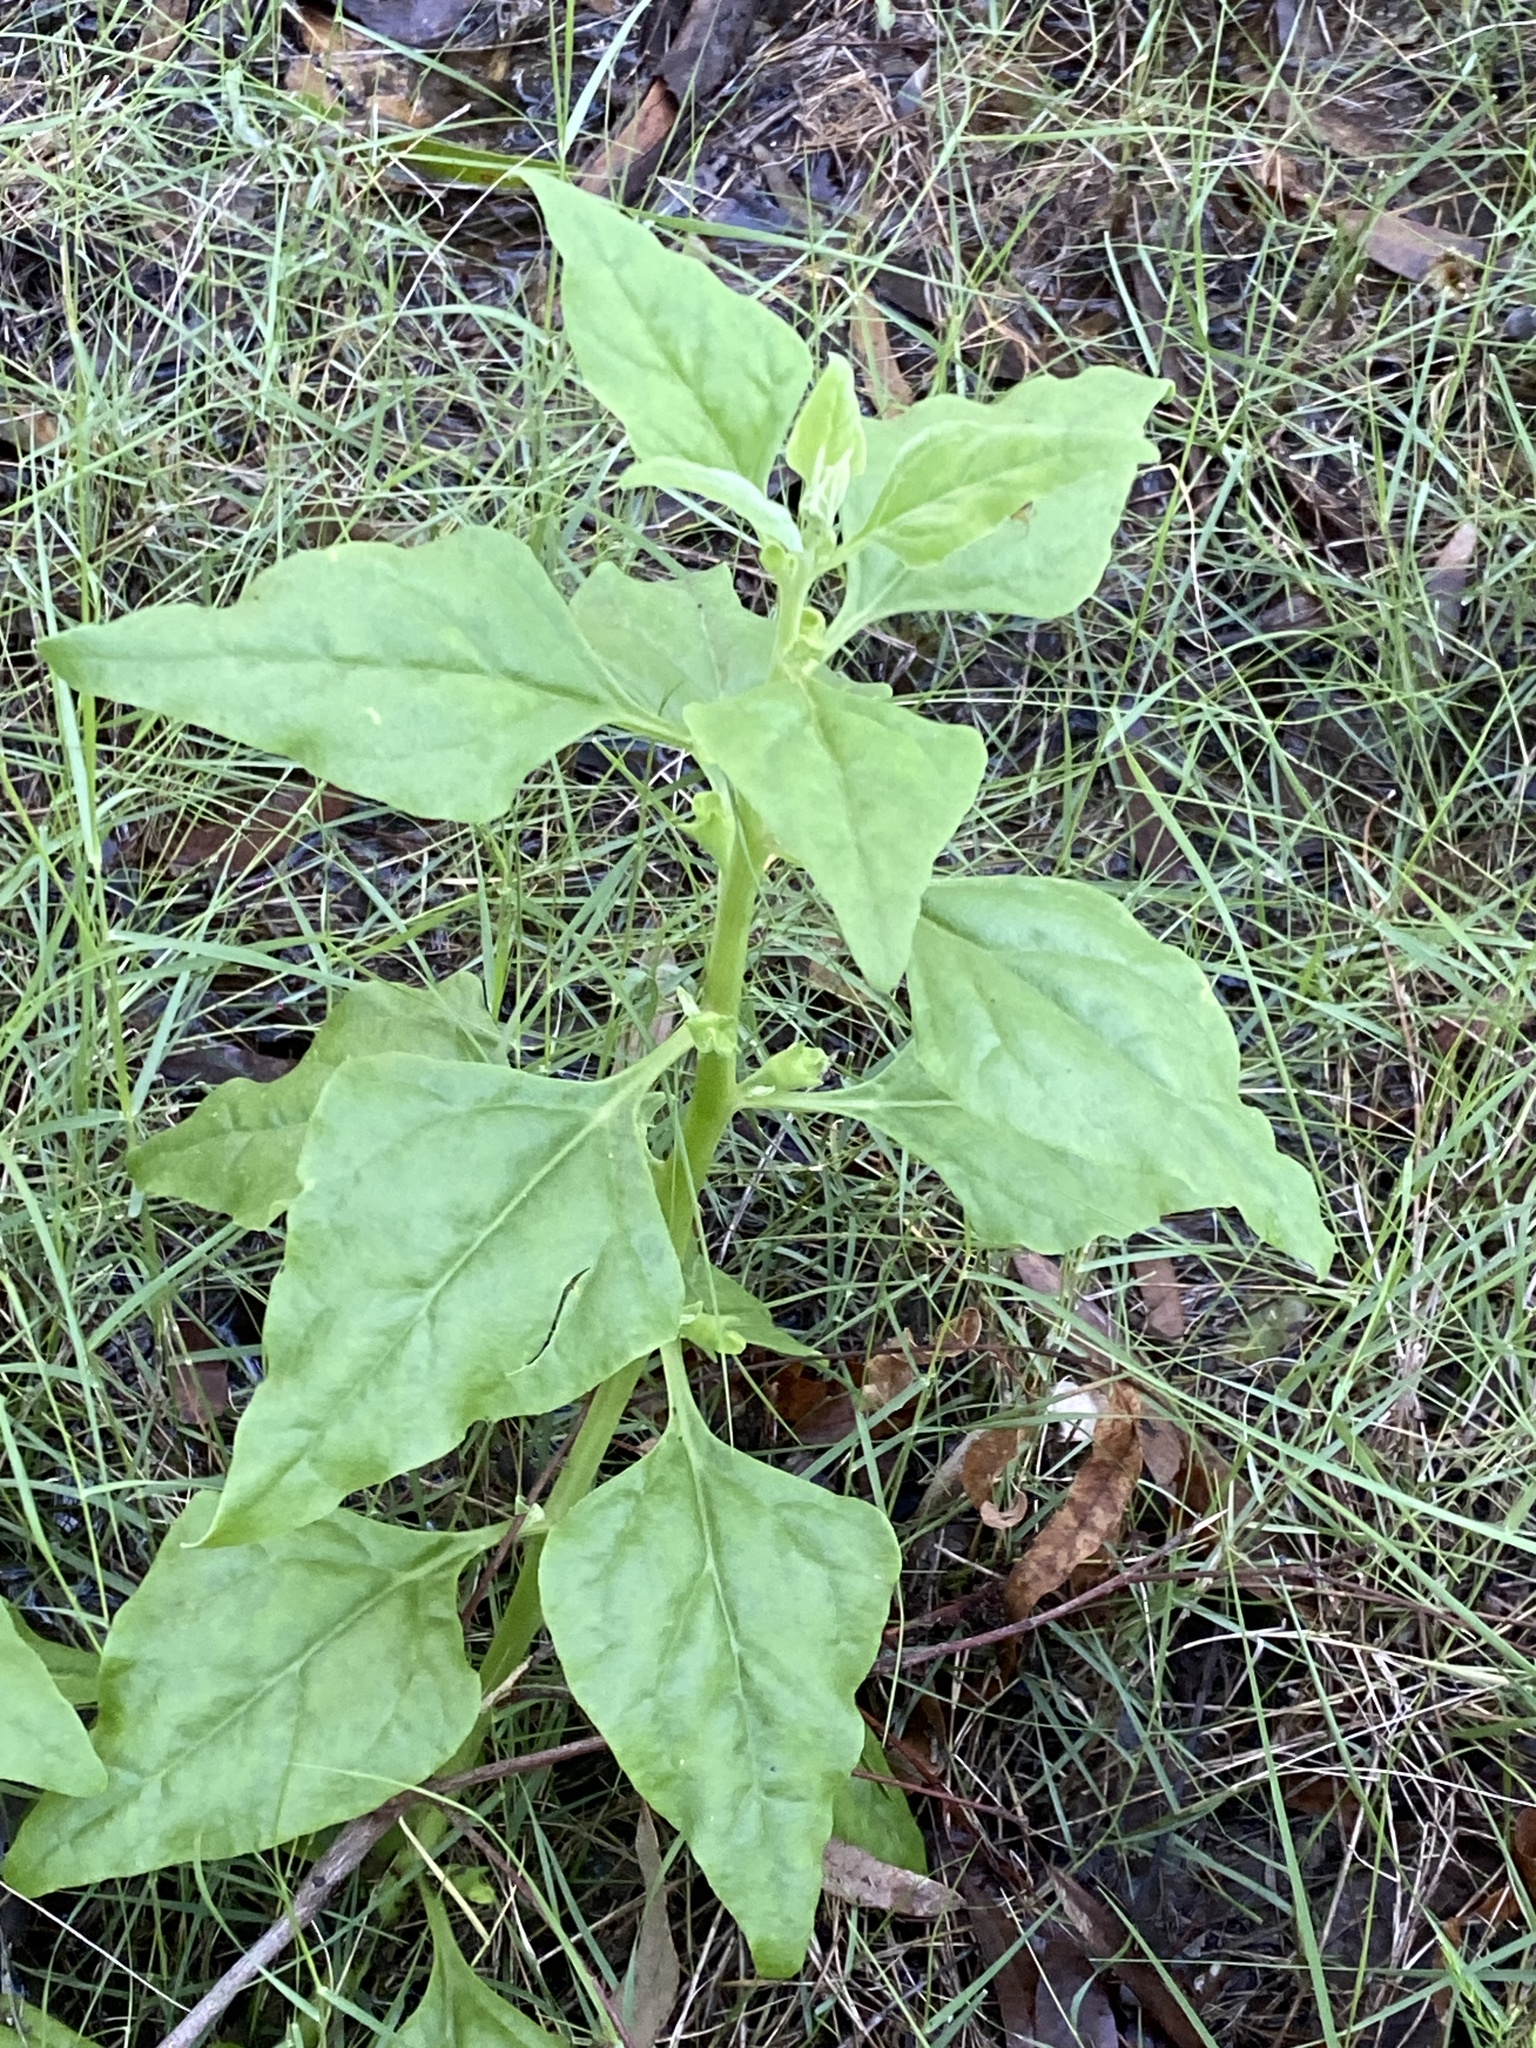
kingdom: Plantae
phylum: Tracheophyta
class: Magnoliopsida
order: Caryophyllales
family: Aizoaceae
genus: Tetragonia
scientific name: Tetragonia tetragonoides
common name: New zealand-spinach
